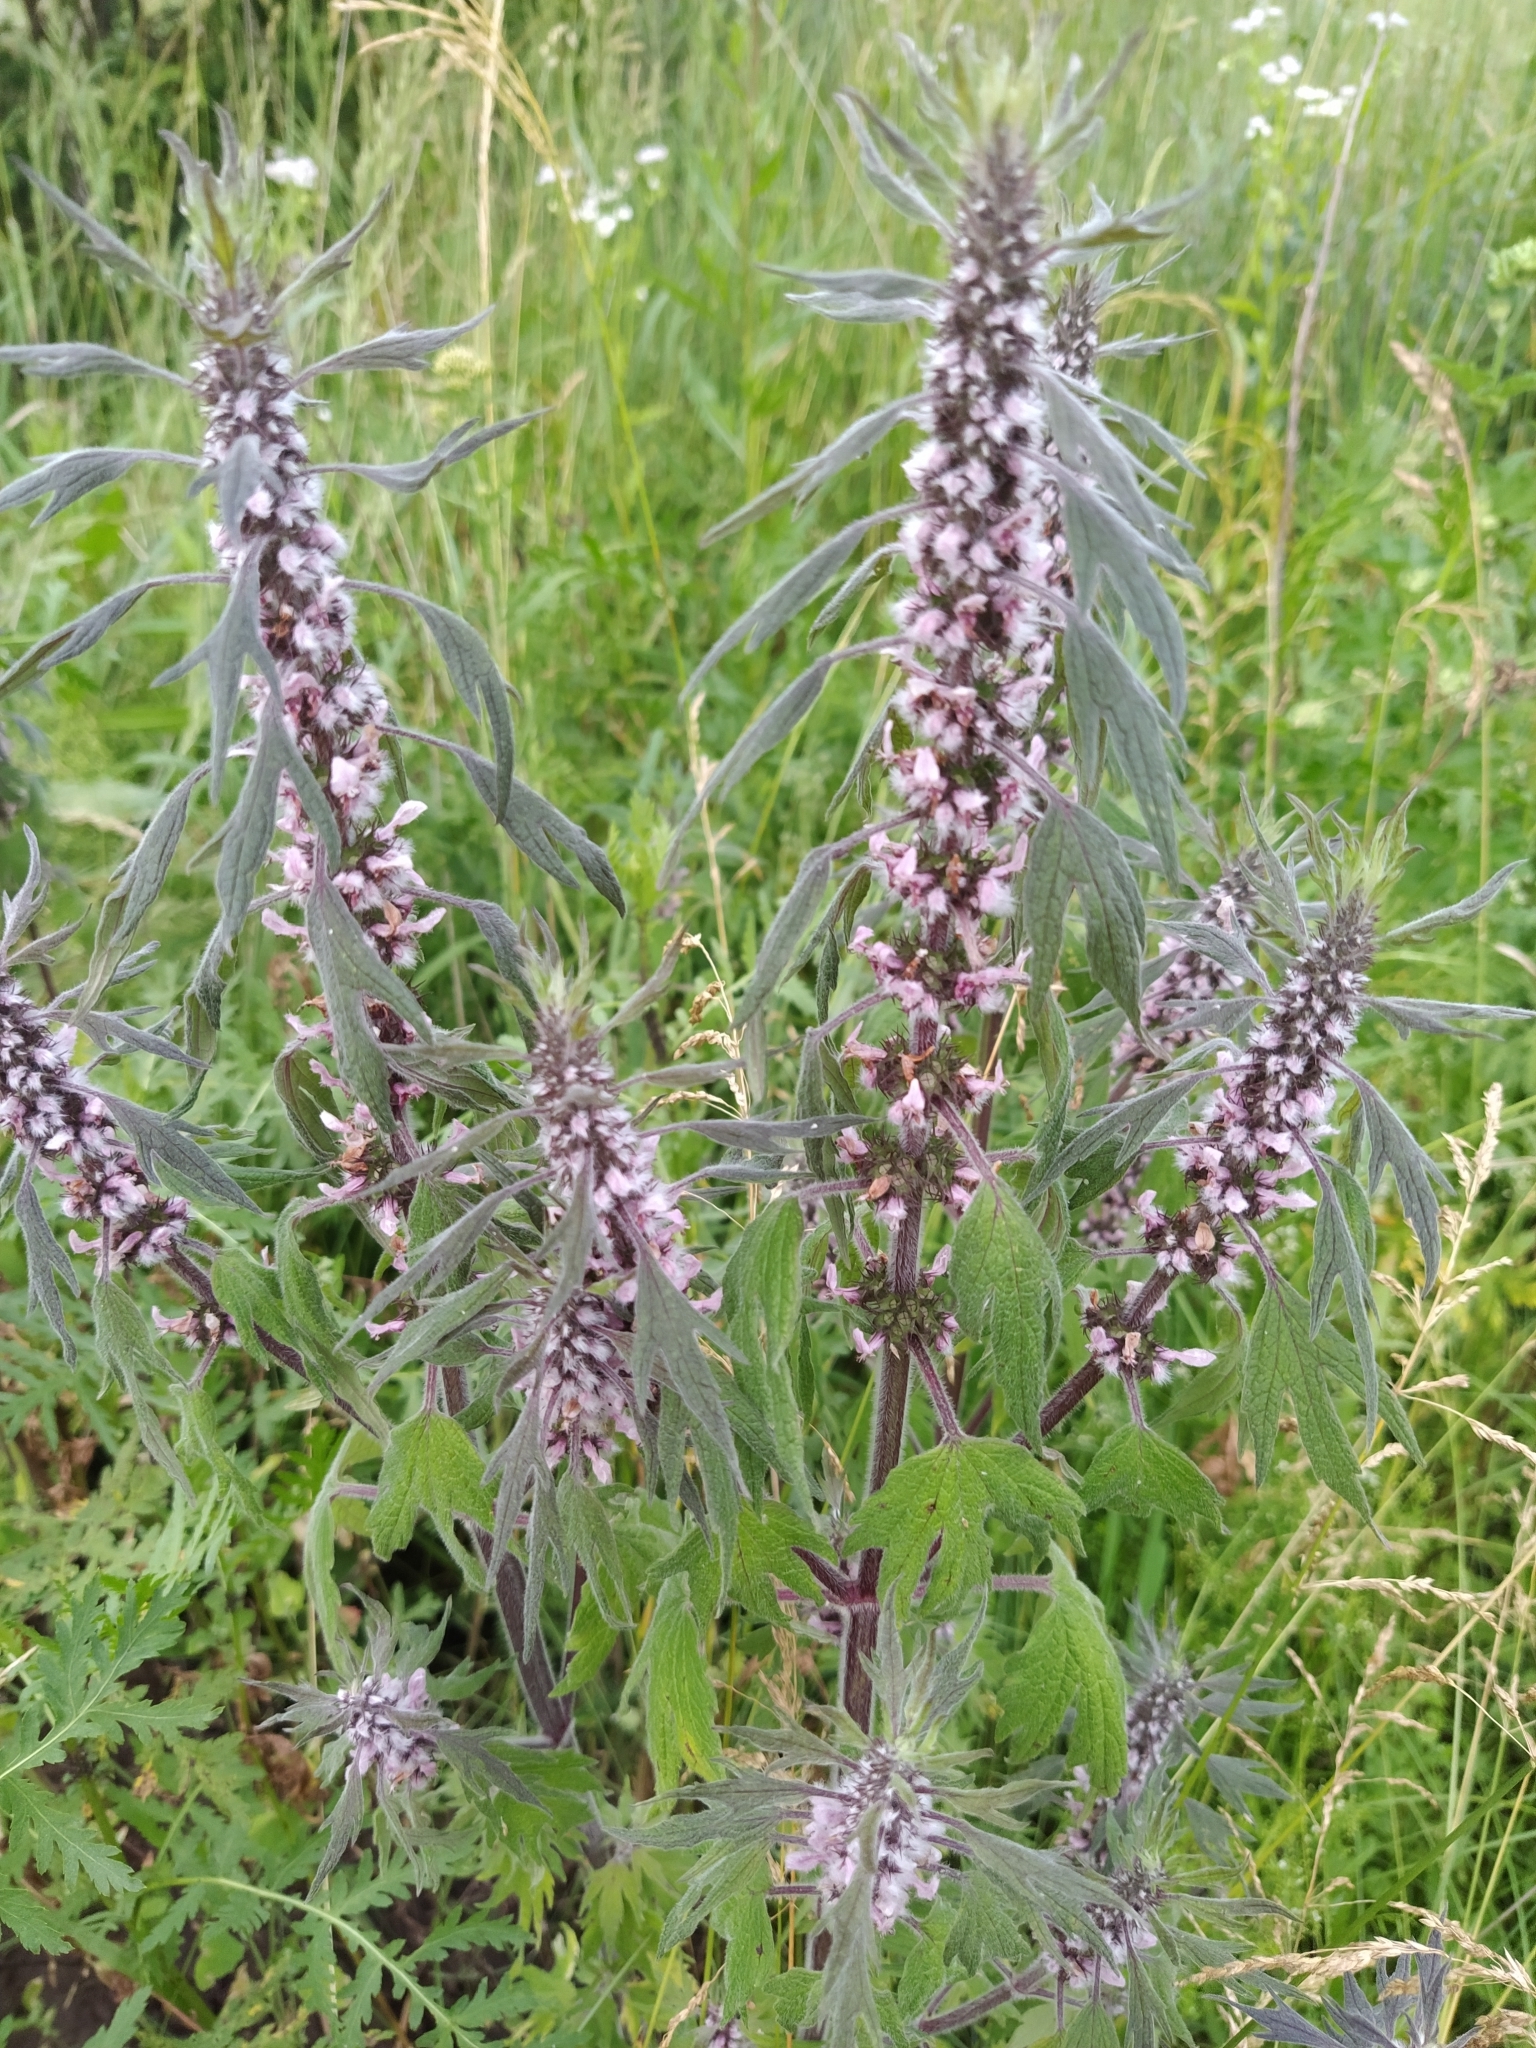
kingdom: Plantae
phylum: Tracheophyta
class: Magnoliopsida
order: Lamiales
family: Lamiaceae
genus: Leonurus
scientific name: Leonurus quinquelobatus
